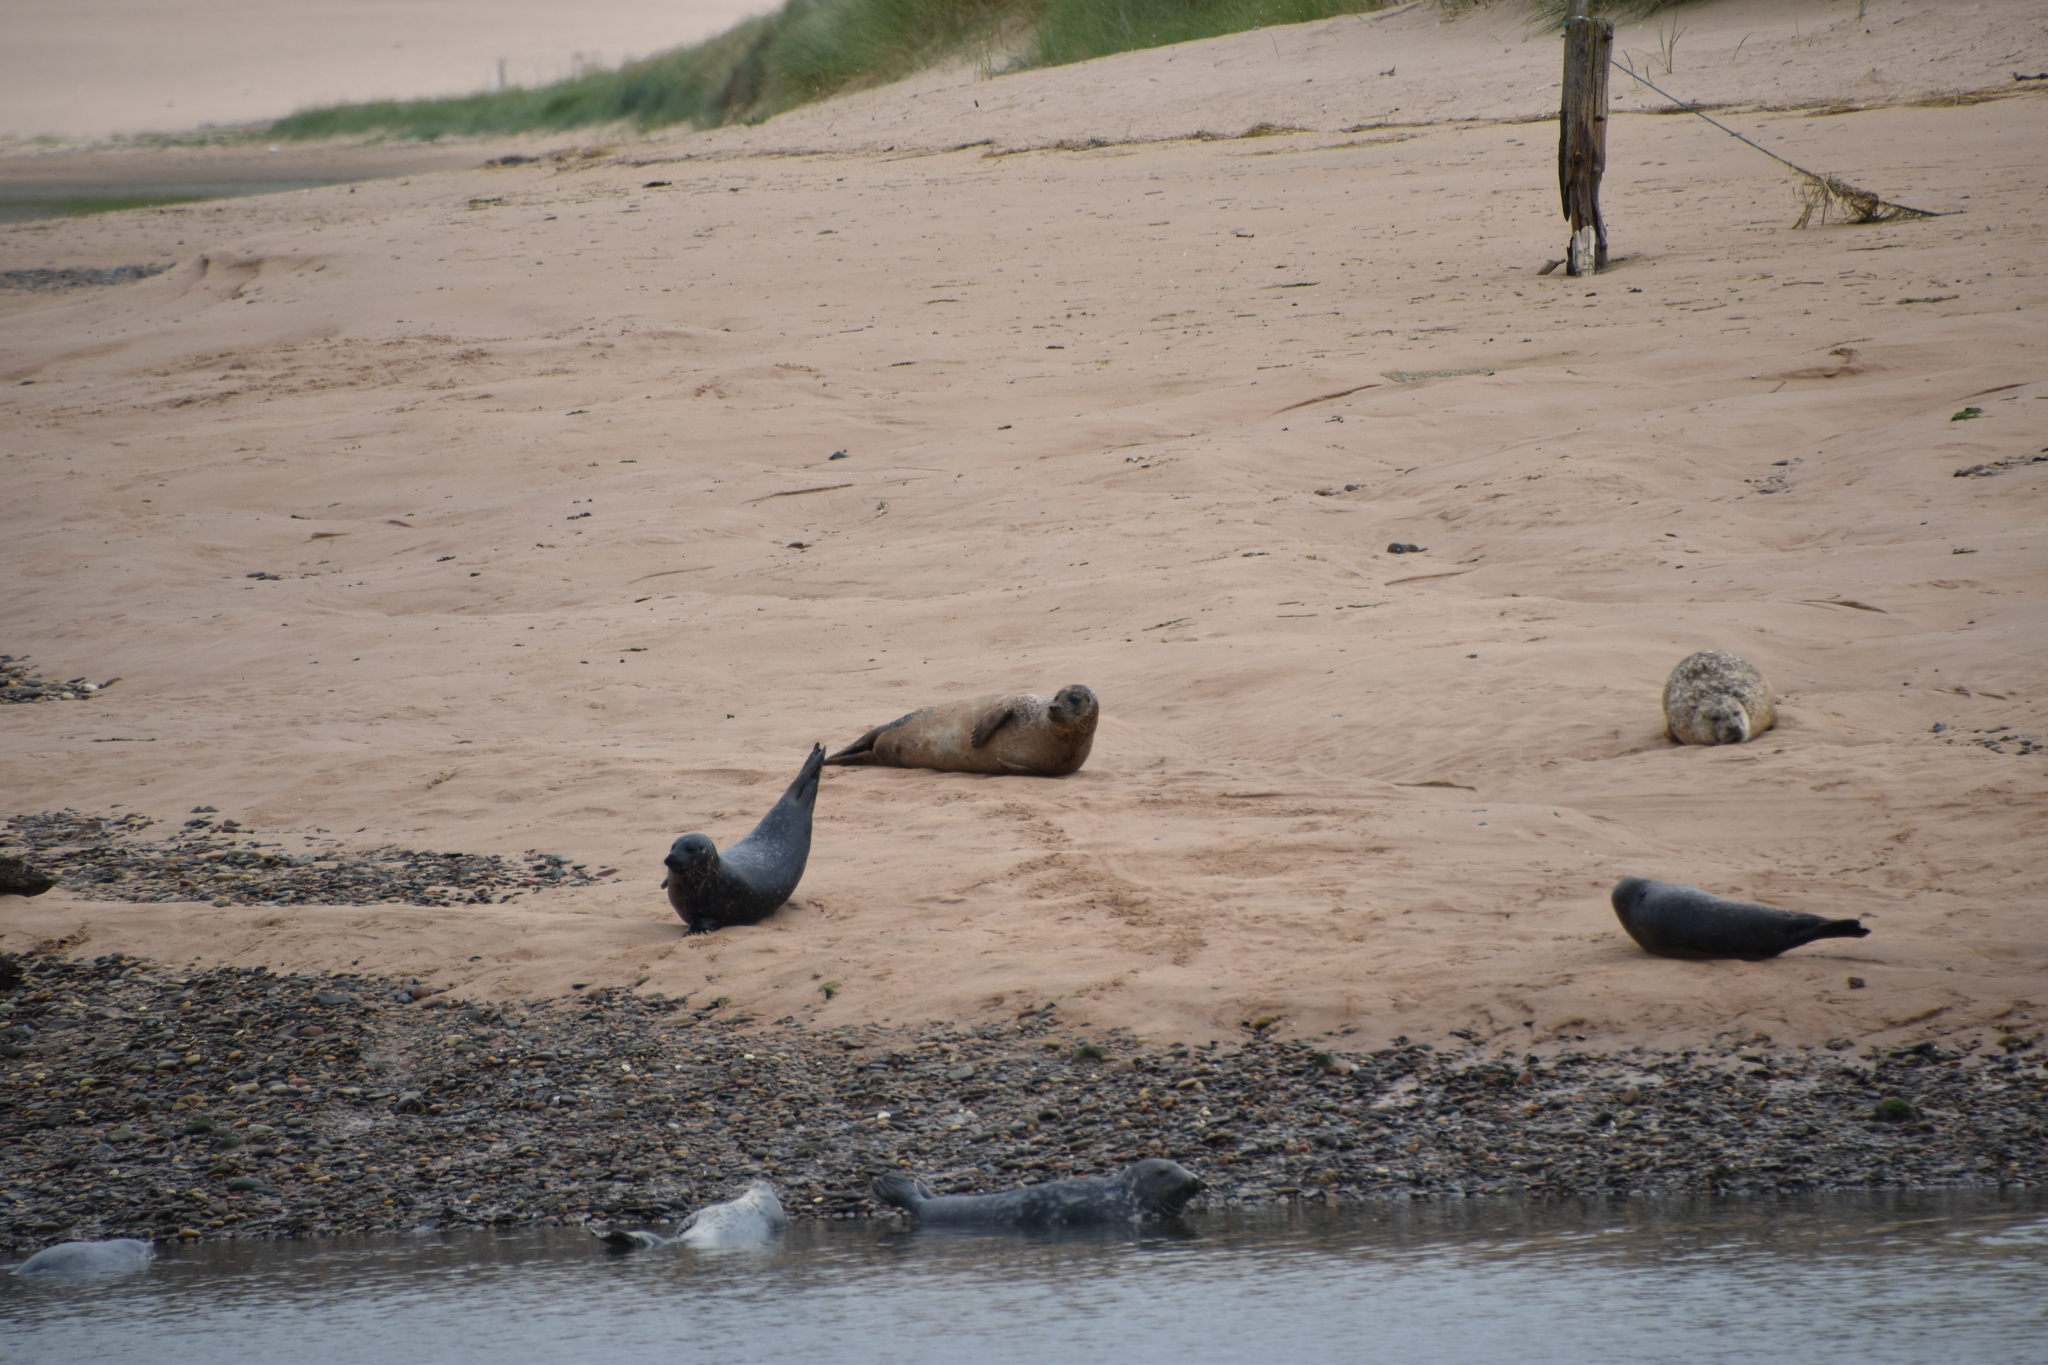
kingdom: Animalia
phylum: Chordata
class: Mammalia
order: Carnivora
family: Phocidae
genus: Phoca
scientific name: Phoca vitulina
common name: Harbor seal
